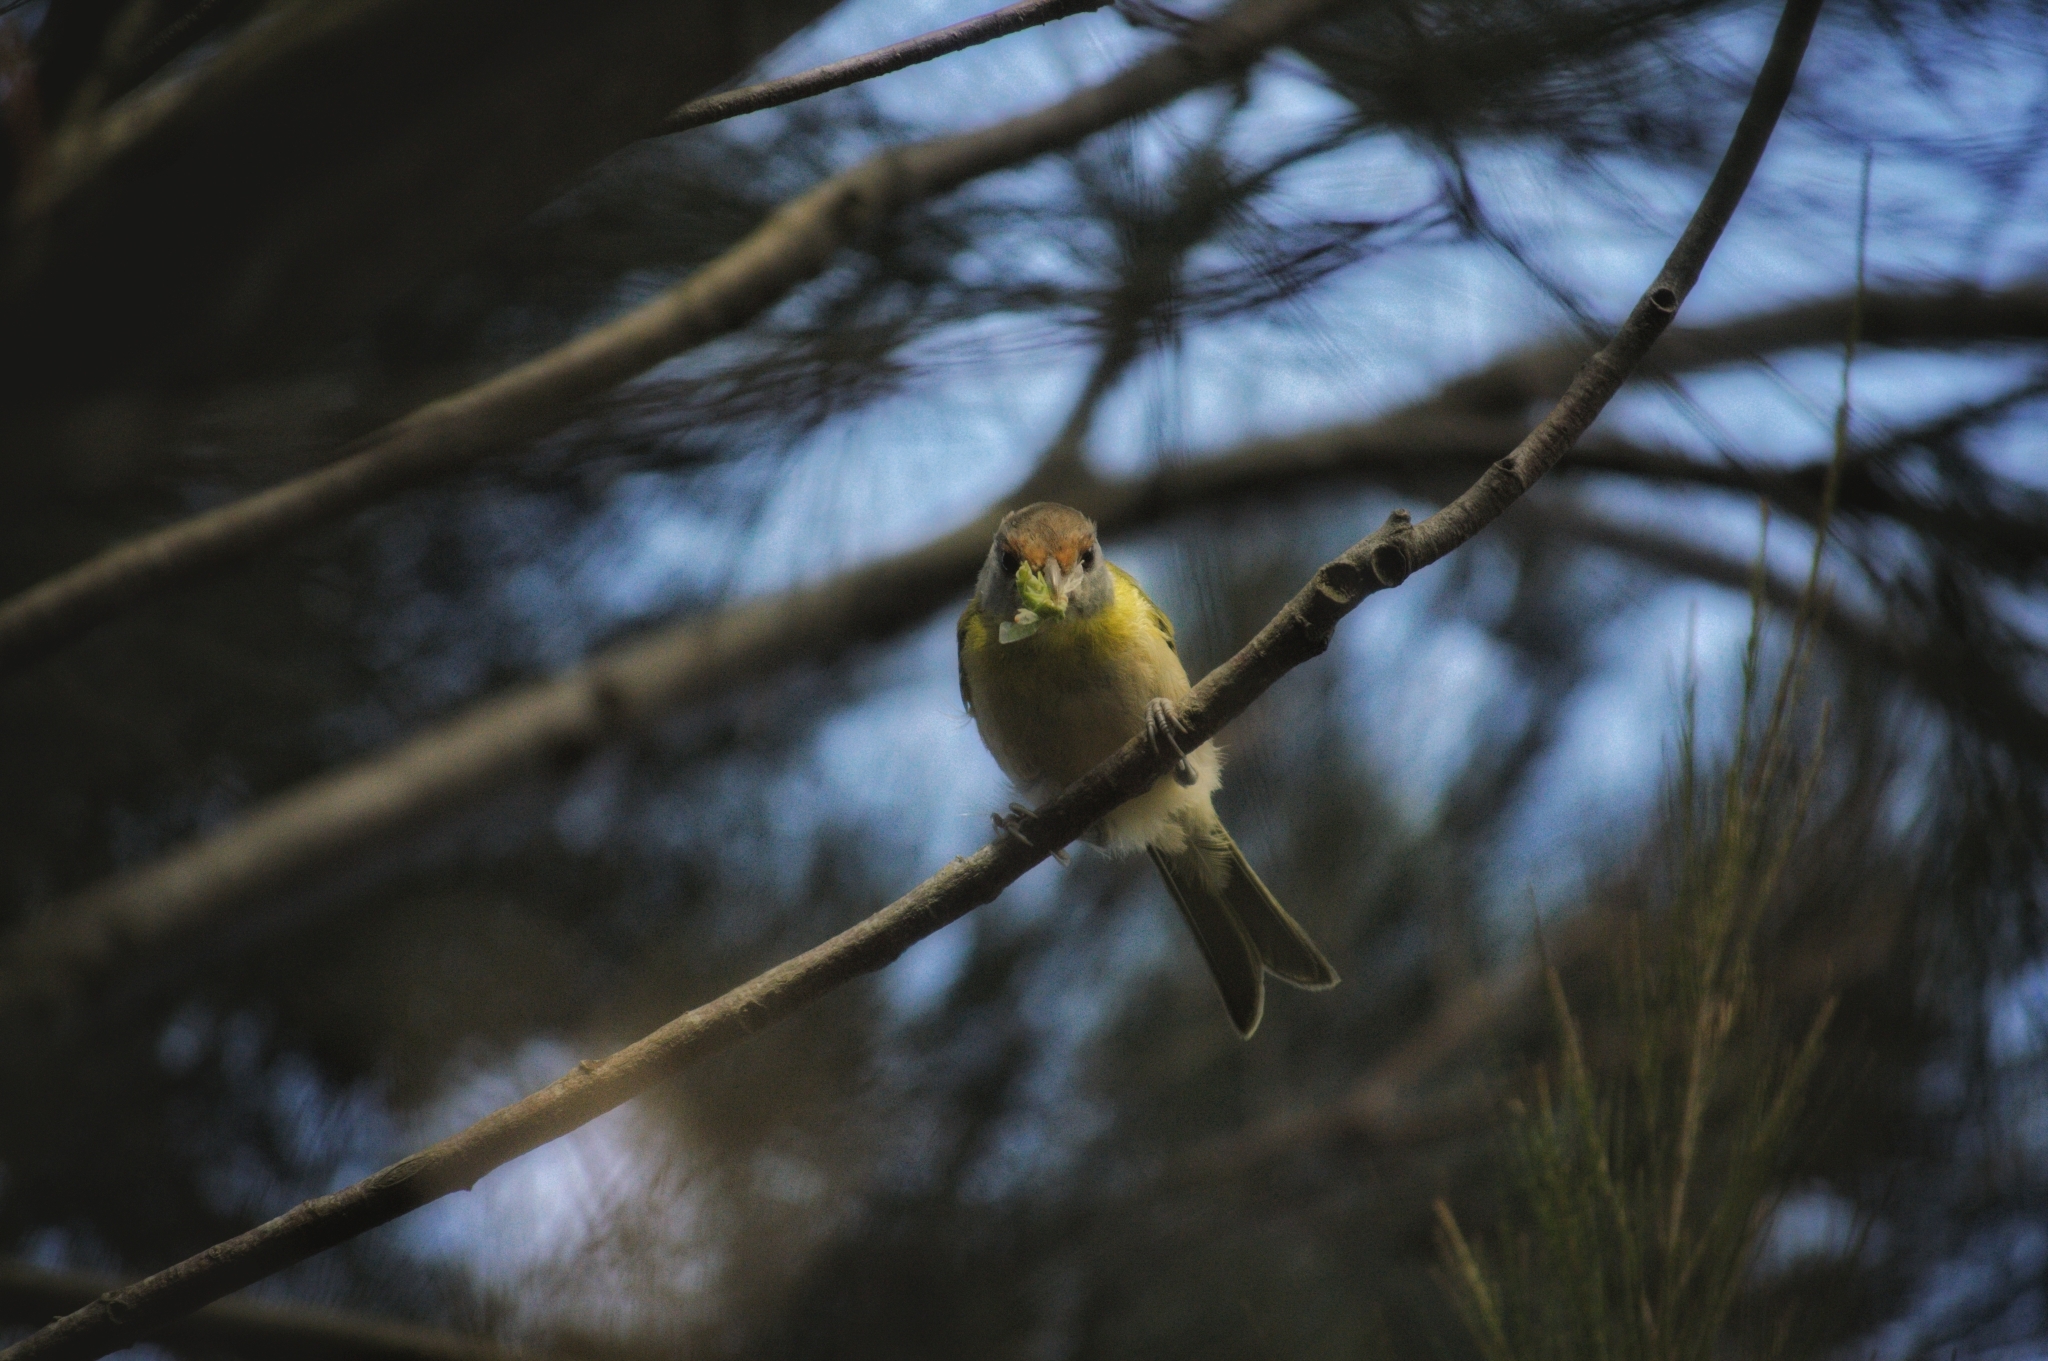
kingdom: Animalia
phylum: Chordata
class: Aves
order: Passeriformes
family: Vireonidae
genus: Cyclarhis
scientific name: Cyclarhis gujanensis
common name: Rufous-browed peppershrike
